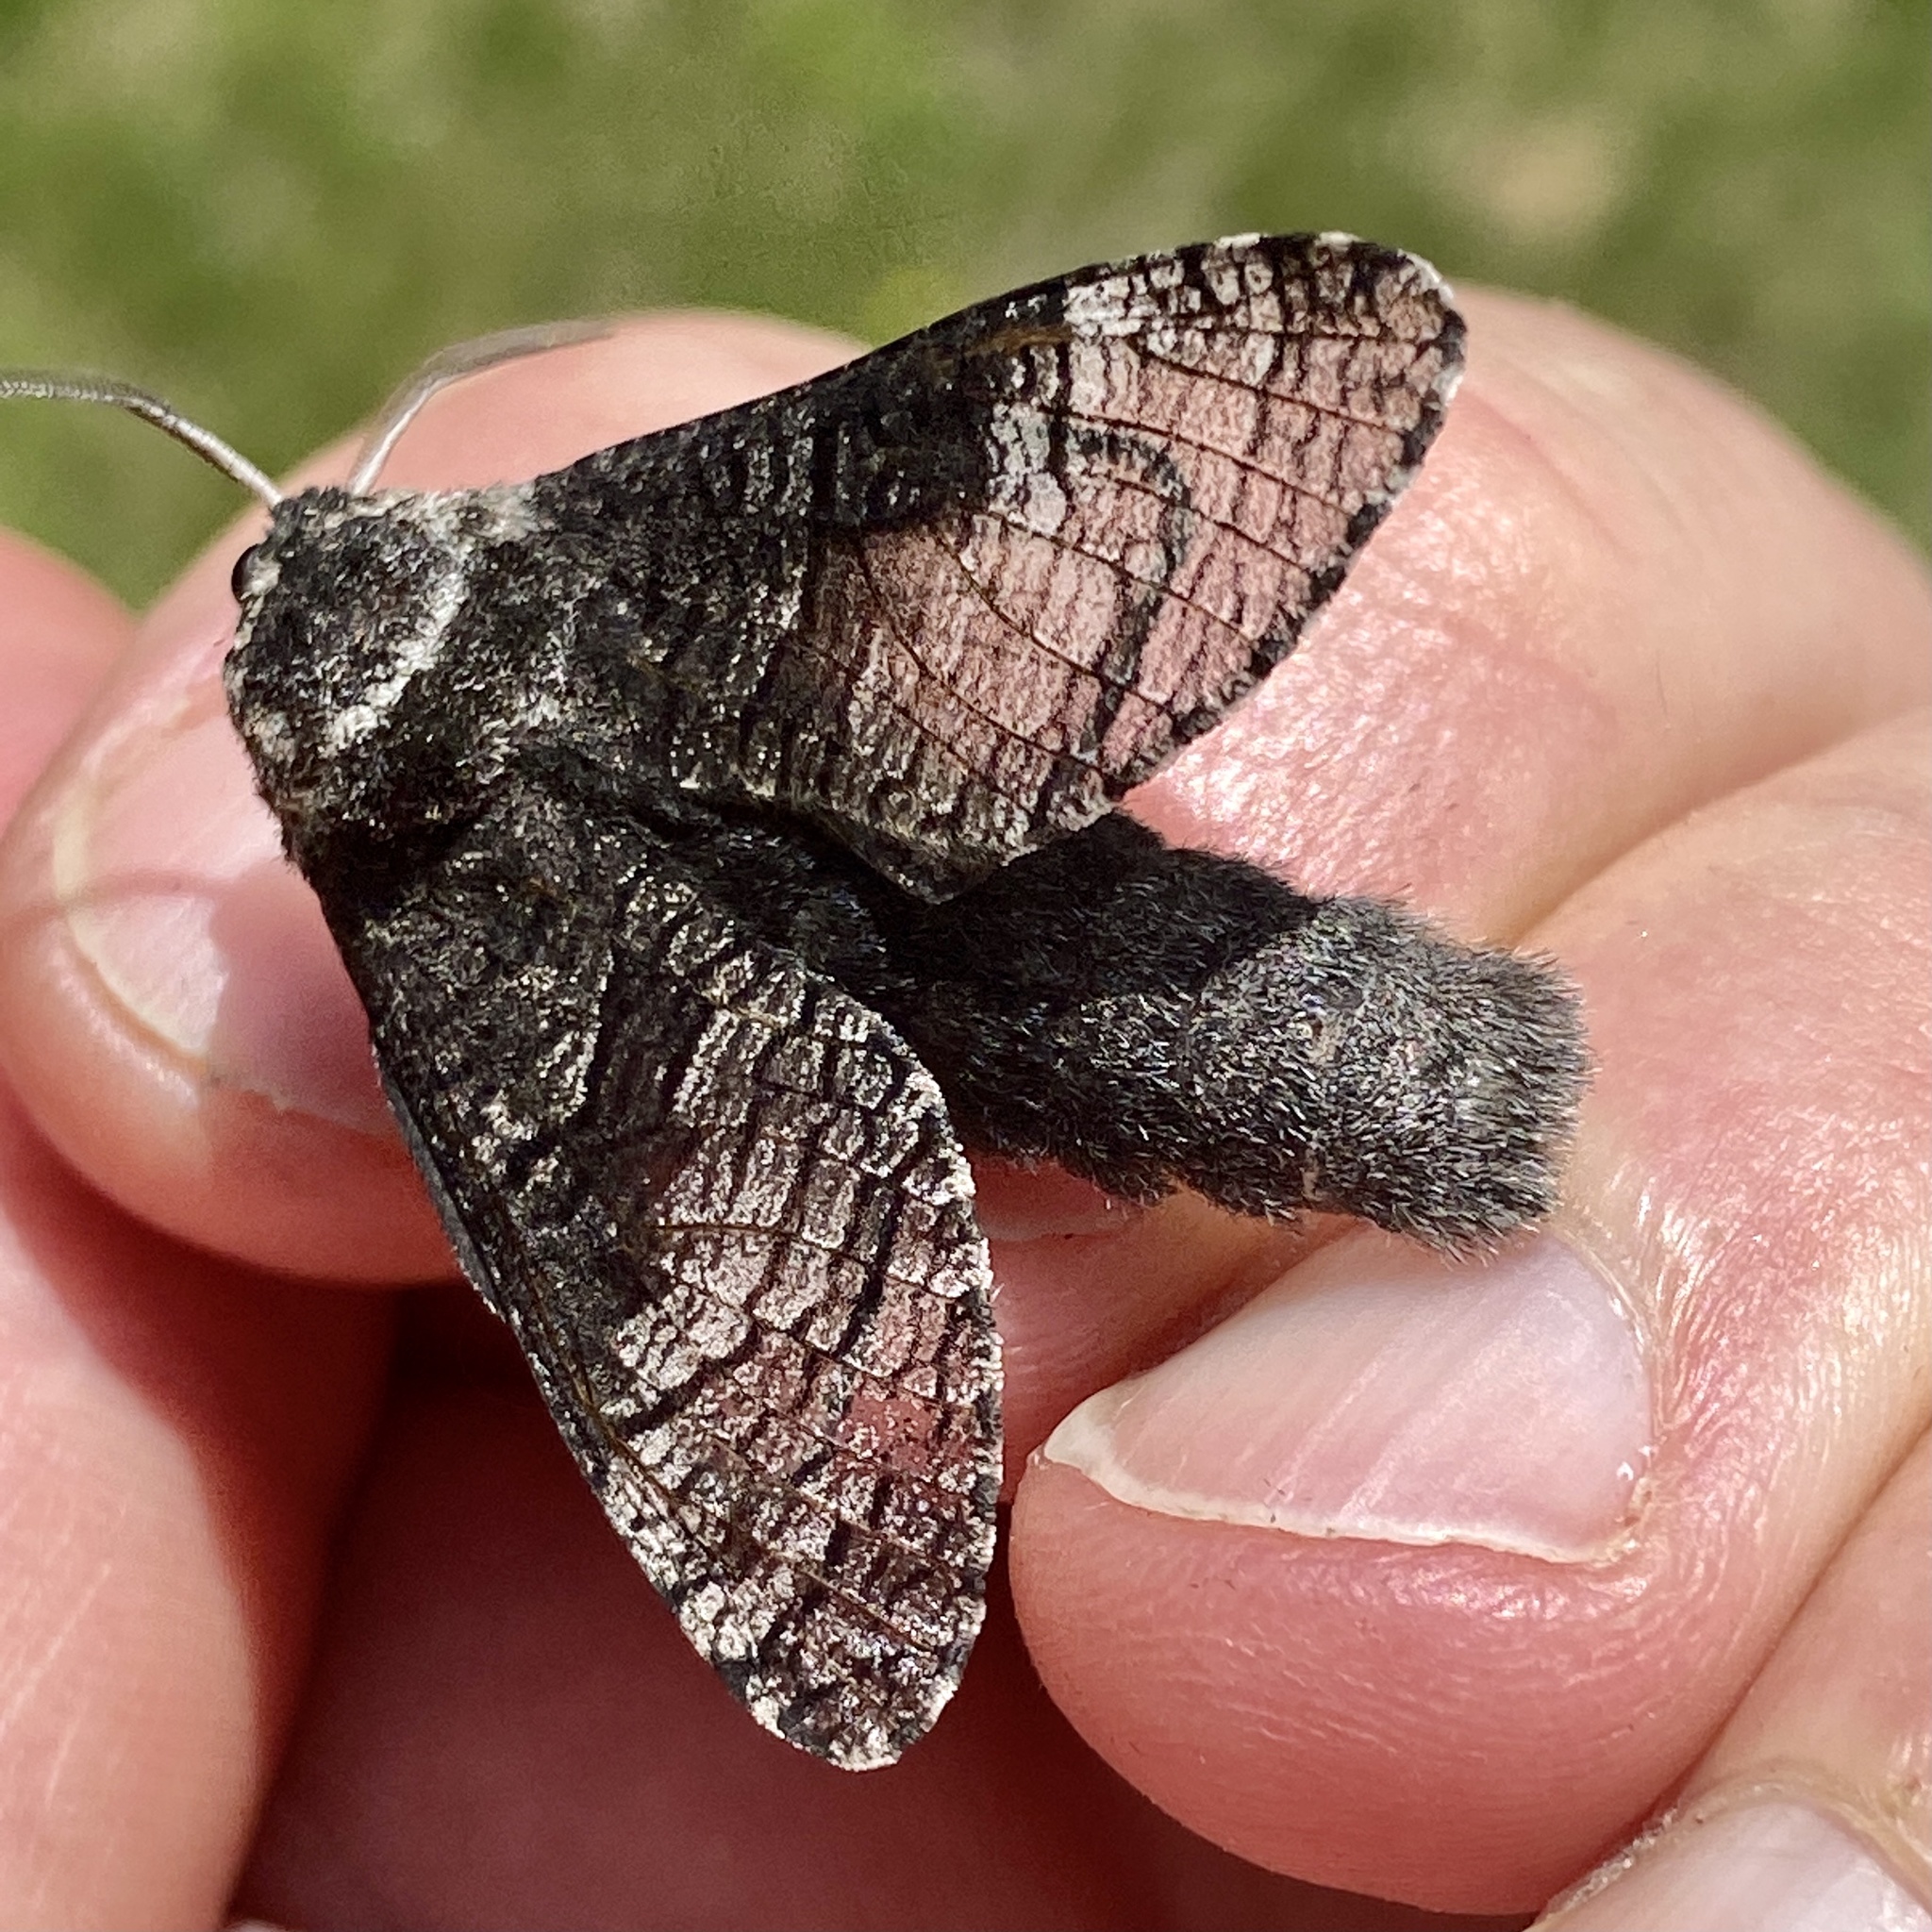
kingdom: Animalia
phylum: Arthropoda
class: Insecta
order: Lepidoptera
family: Cossidae
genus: Acossus
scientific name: Acossus centerensis
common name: Poplar carpenterworm moth
